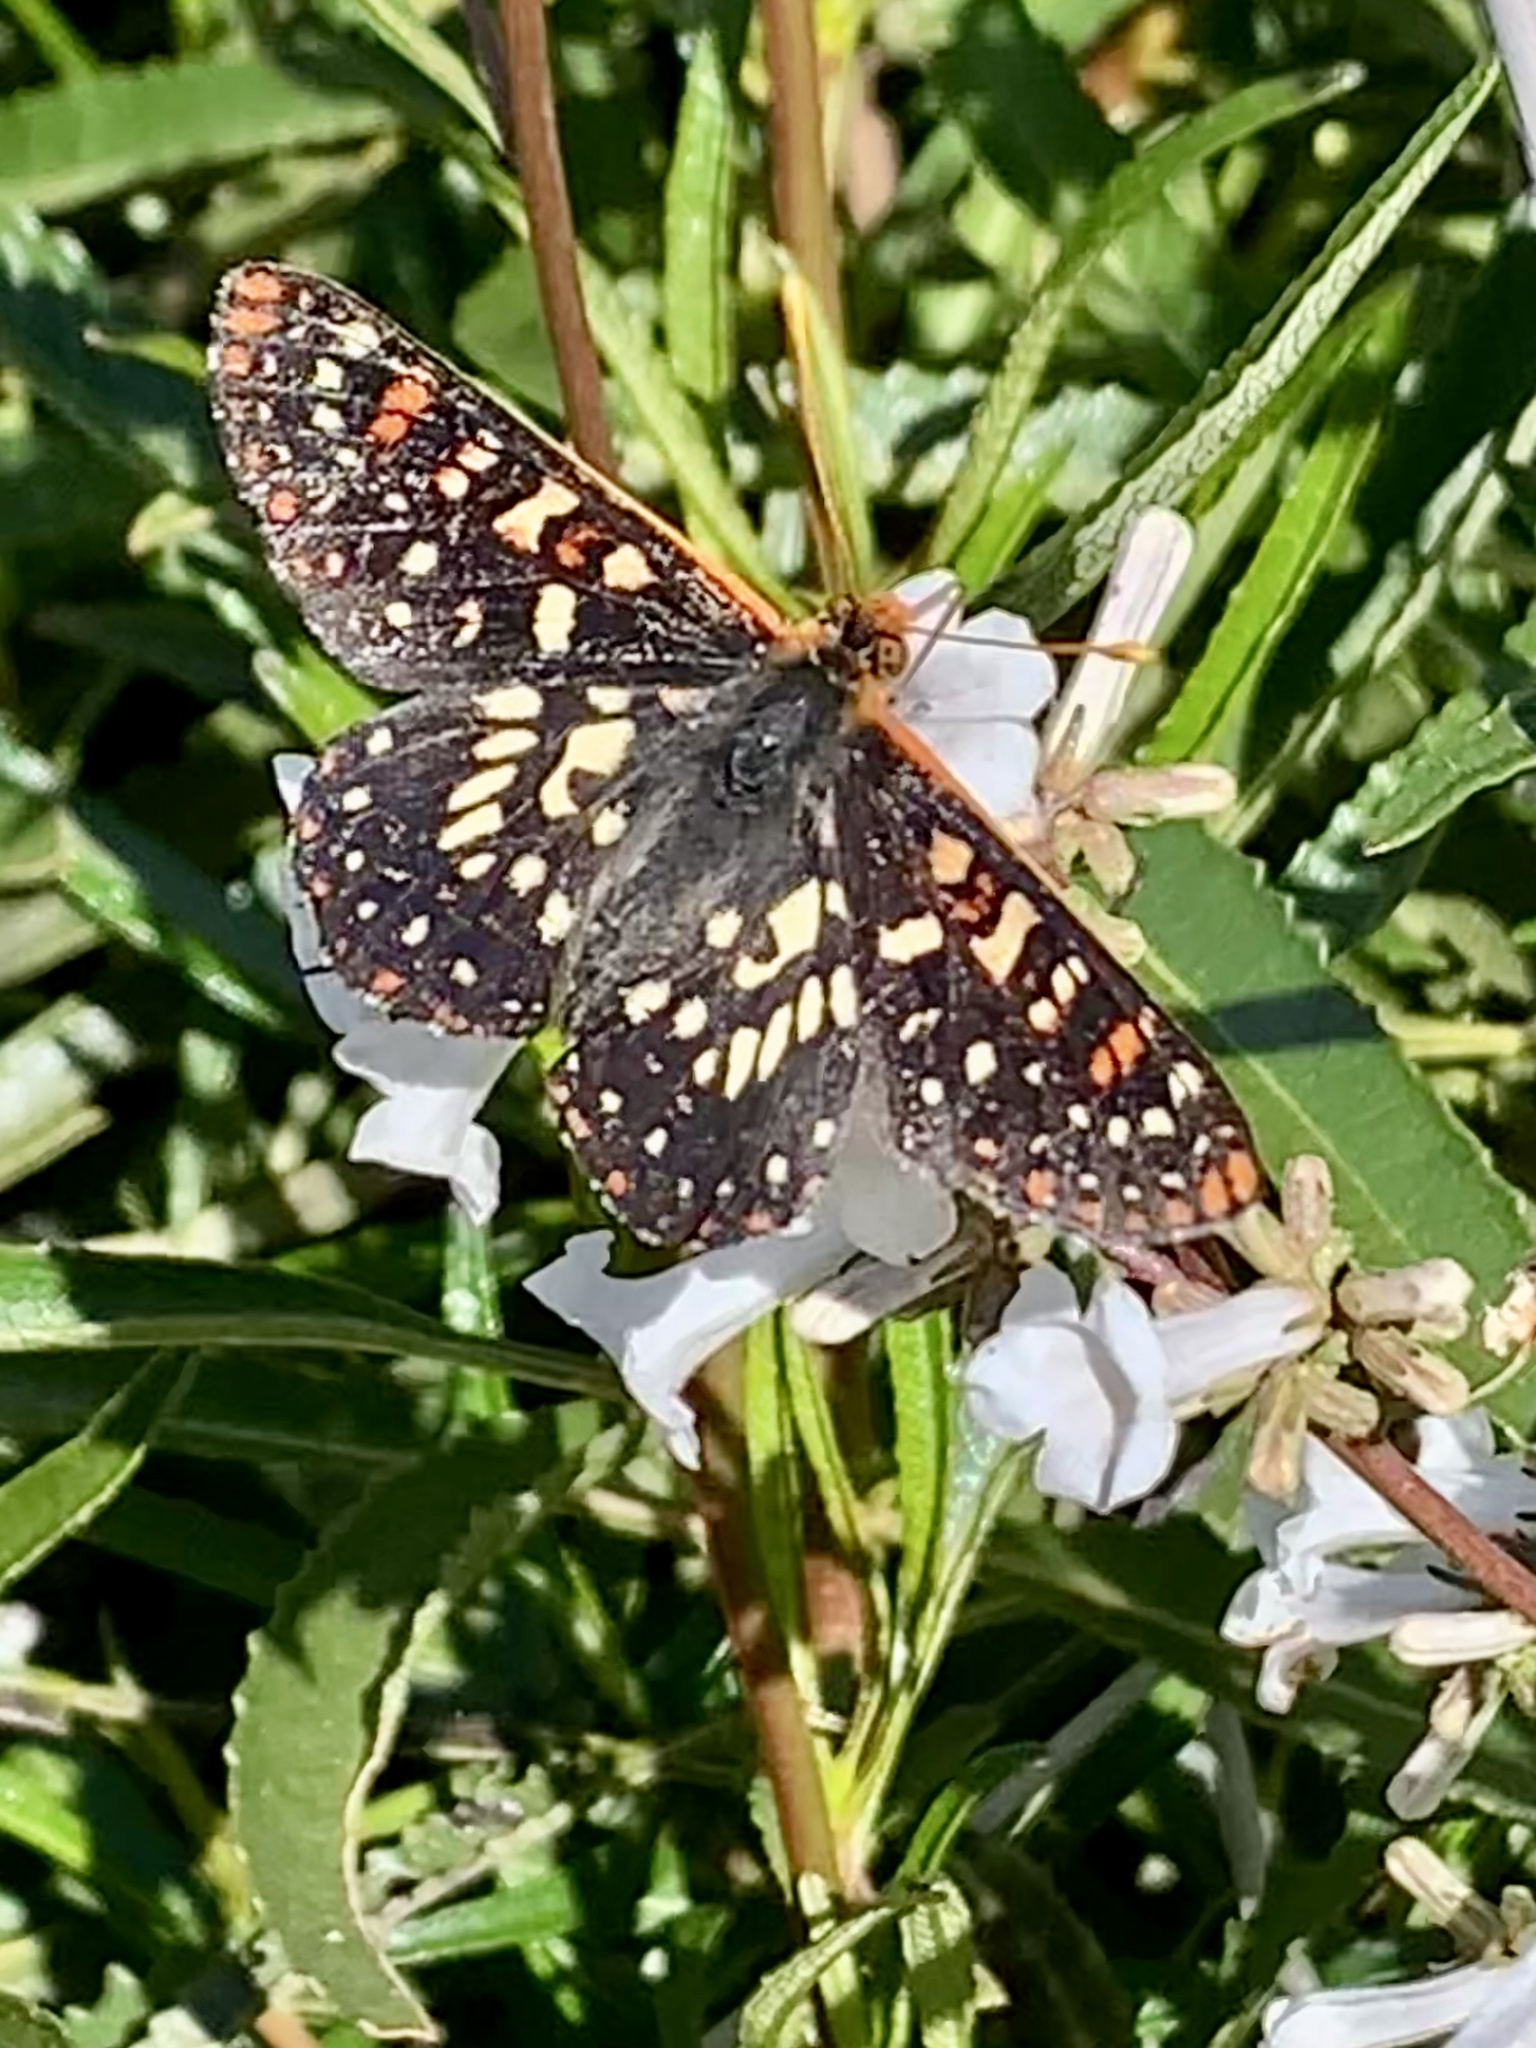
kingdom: Animalia
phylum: Arthropoda
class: Insecta
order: Lepidoptera
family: Nymphalidae
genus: Occidryas
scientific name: Occidryas chalcedona
